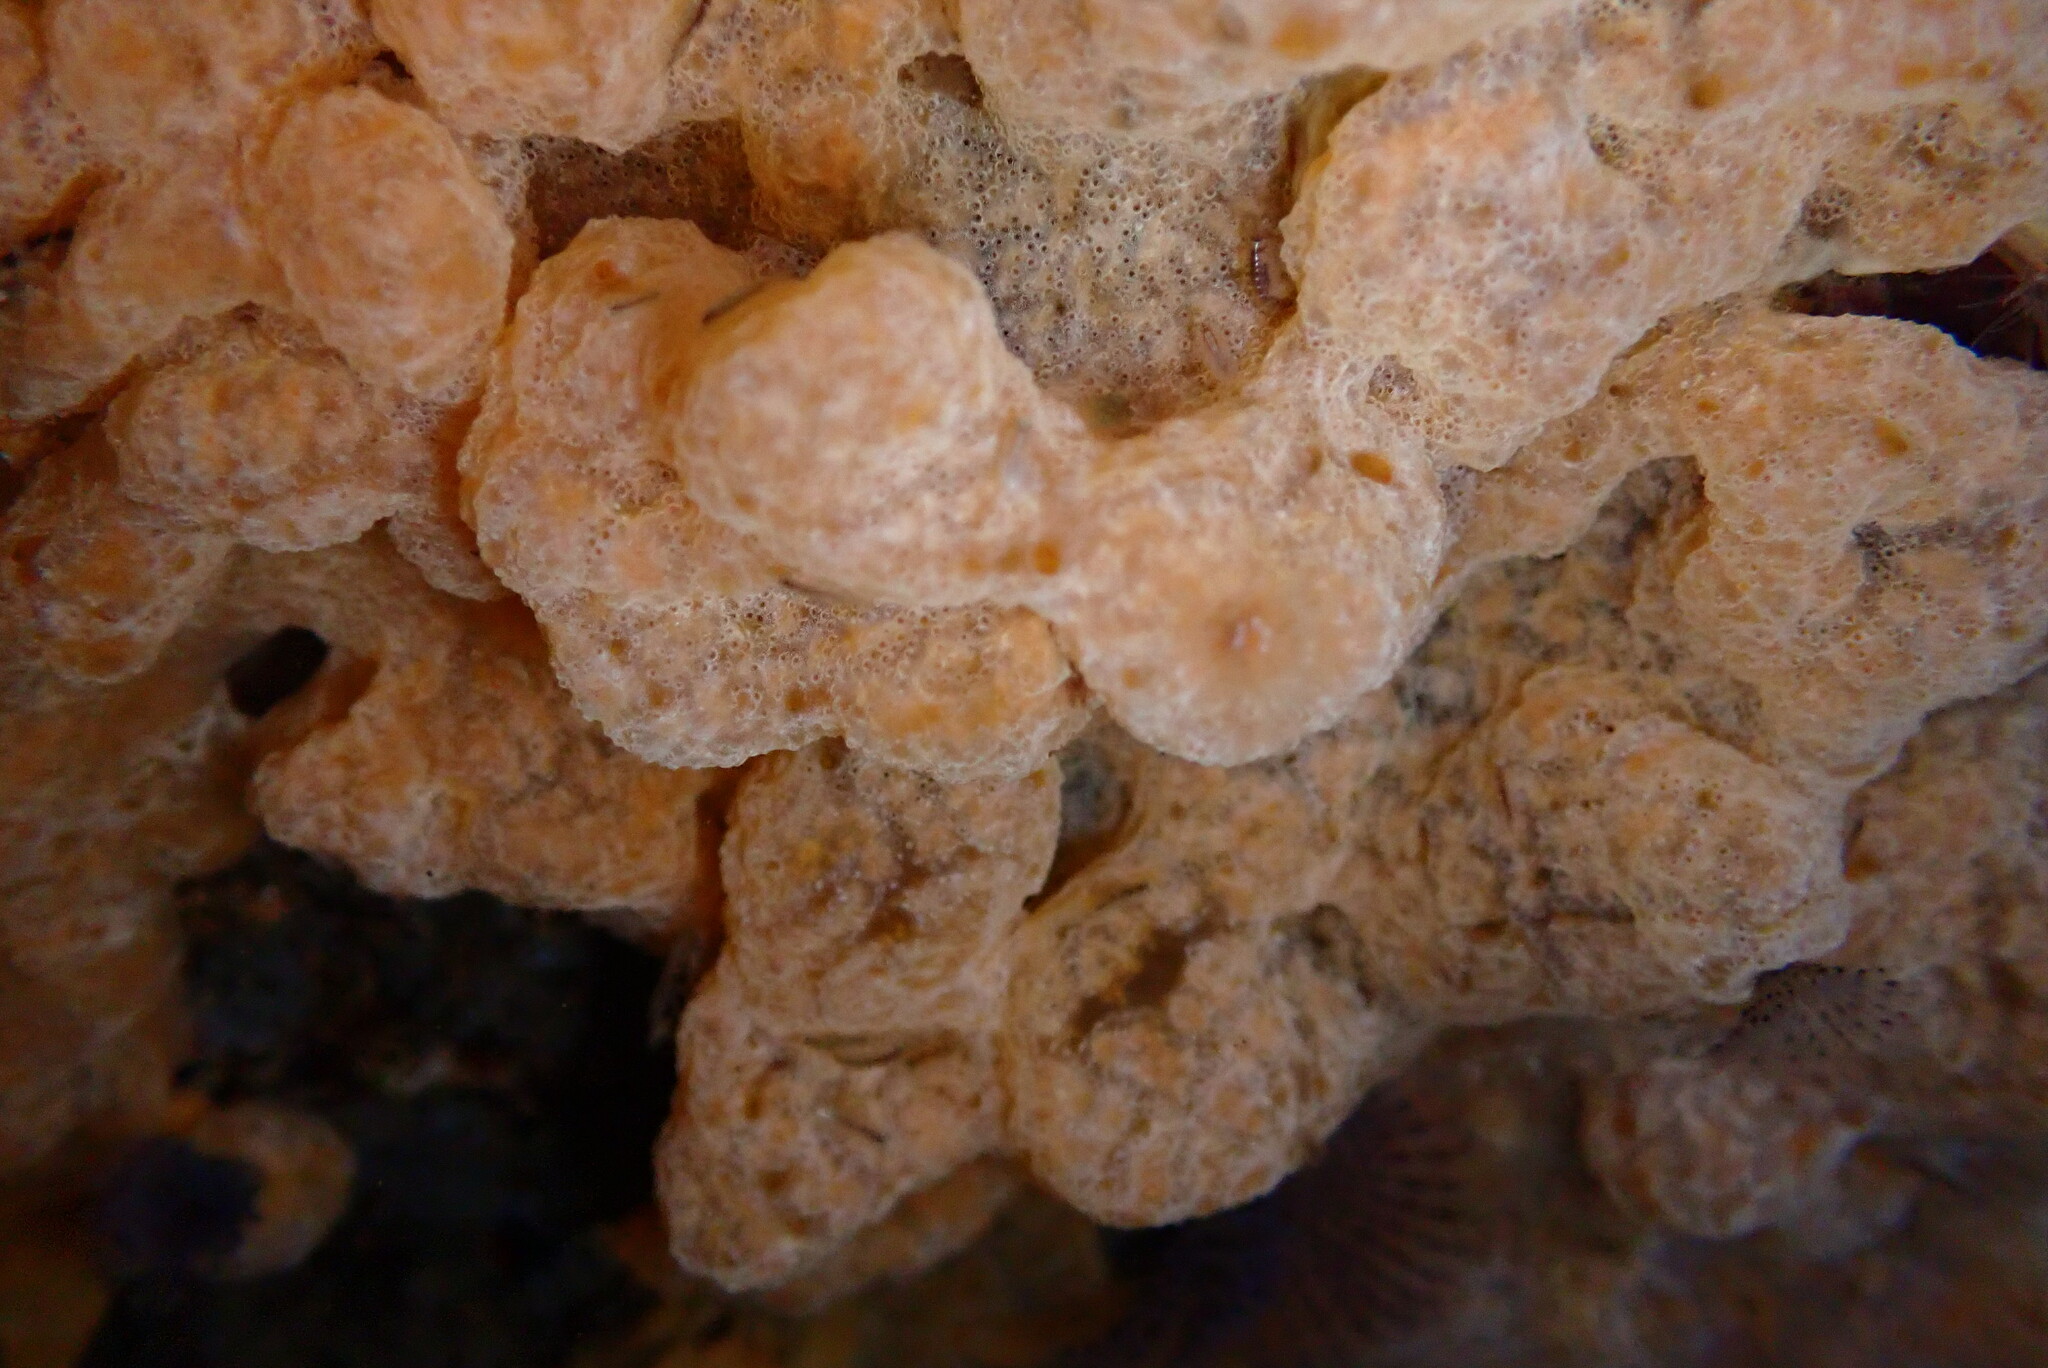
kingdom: Animalia
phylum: Chordata
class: Ascidiacea
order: Aplousobranchia
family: Didemnidae
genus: Didemnum
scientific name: Didemnum vexillum
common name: Compound sea squirt
